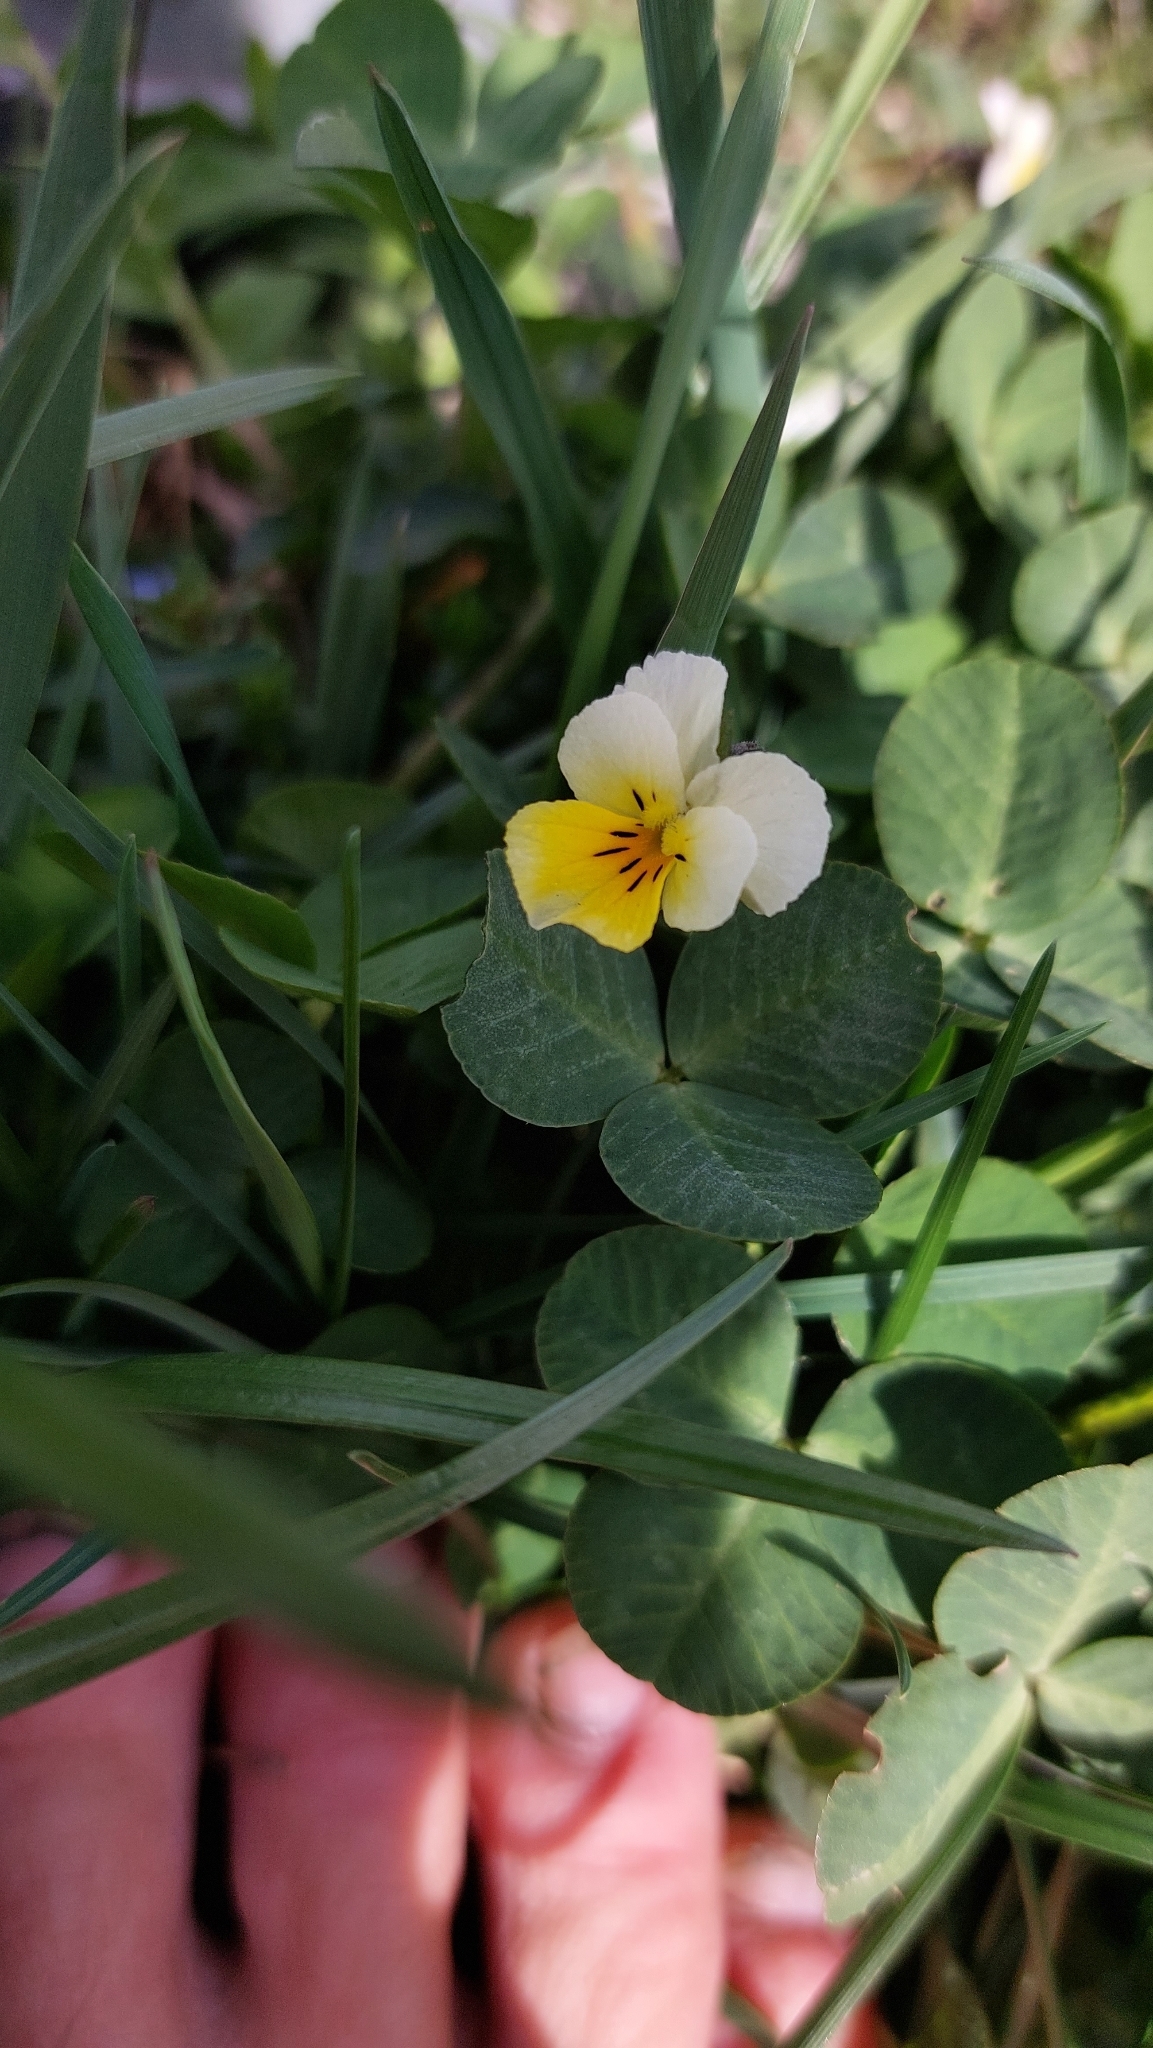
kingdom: Plantae
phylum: Tracheophyta
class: Magnoliopsida
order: Malpighiales
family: Violaceae
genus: Viola
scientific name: Viola arvensis
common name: Field pansy
